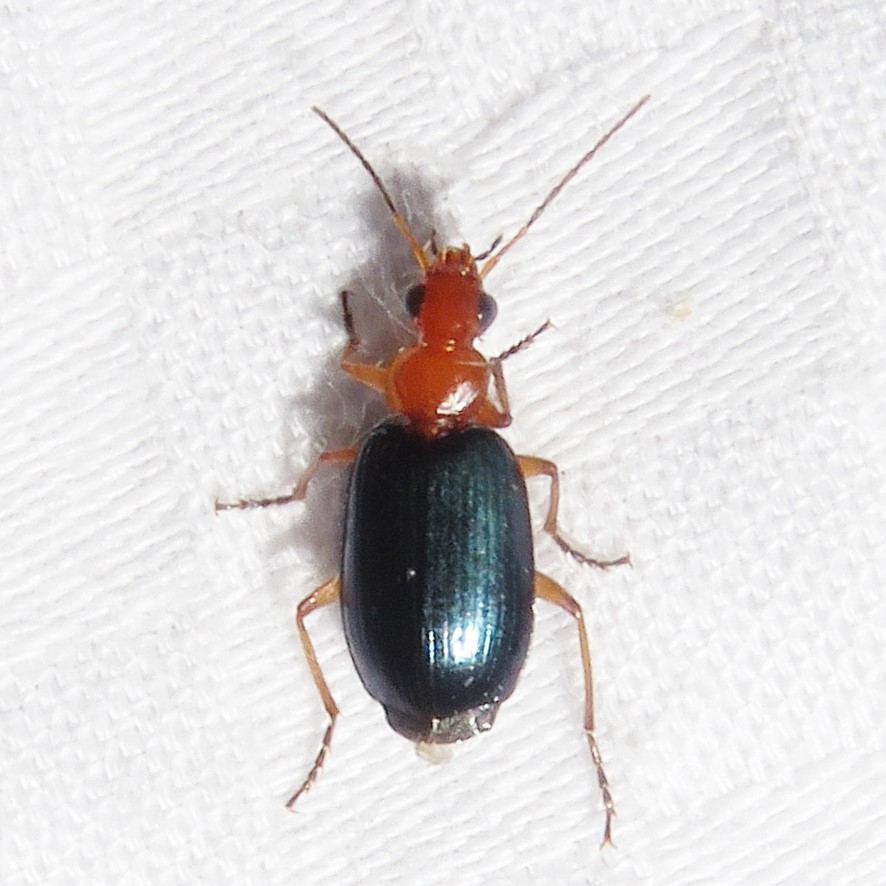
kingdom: Animalia
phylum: Arthropoda
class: Insecta
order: Coleoptera
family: Carabidae
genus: Lebia
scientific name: Lebia atriventris
